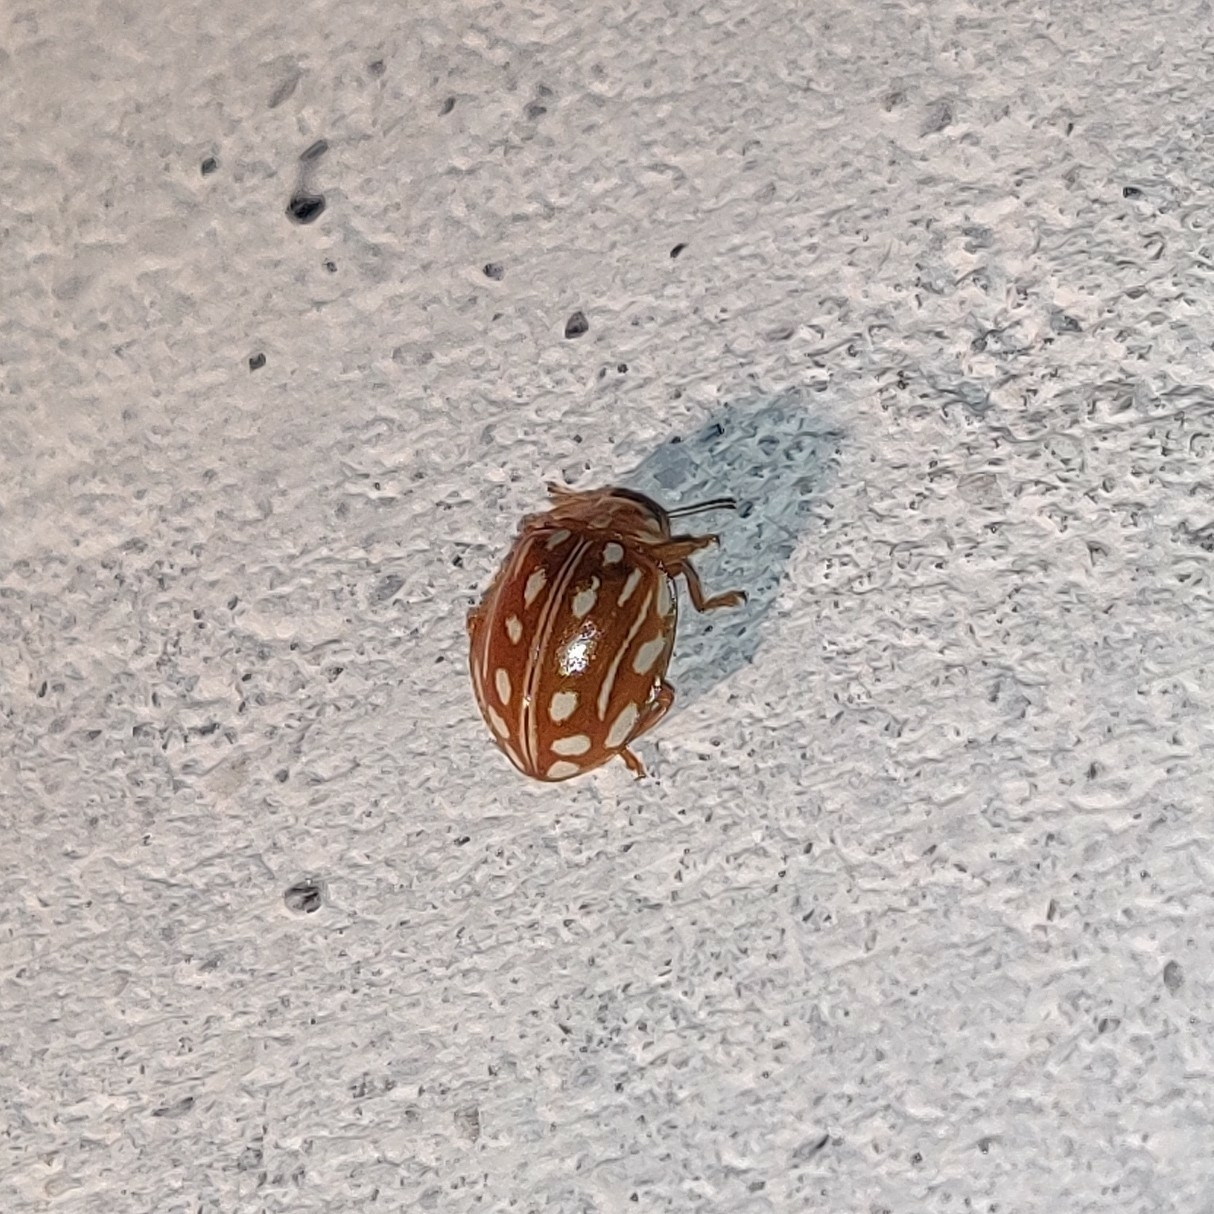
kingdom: Animalia
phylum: Arthropoda
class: Insecta
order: Coleoptera
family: Coccinellidae
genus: Halyzia
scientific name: Halyzia sanscrita
